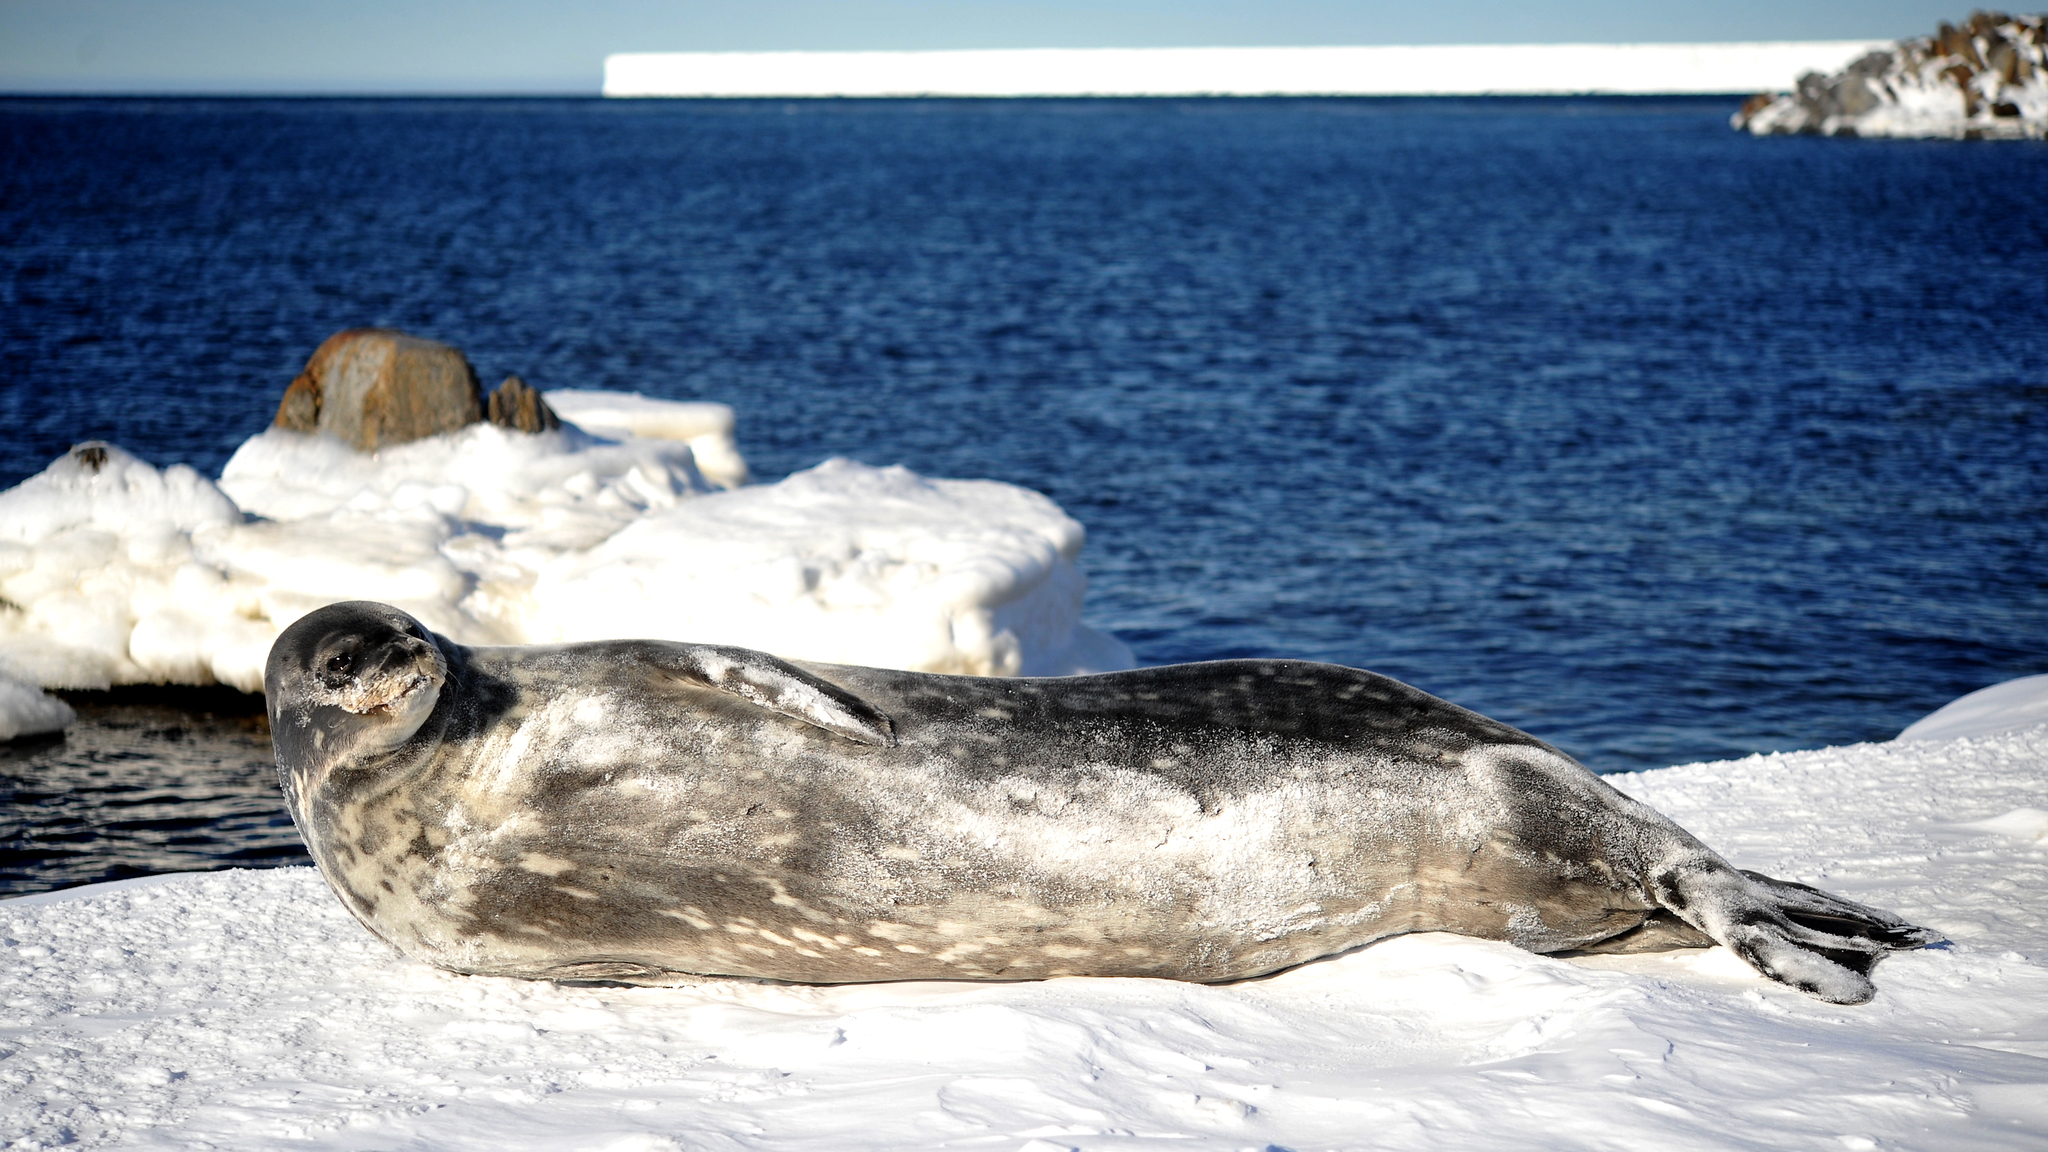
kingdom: Animalia
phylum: Chordata
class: Mammalia
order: Carnivora
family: Phocidae
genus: Leptonychotes
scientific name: Leptonychotes weddellii
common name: Weddell seal
